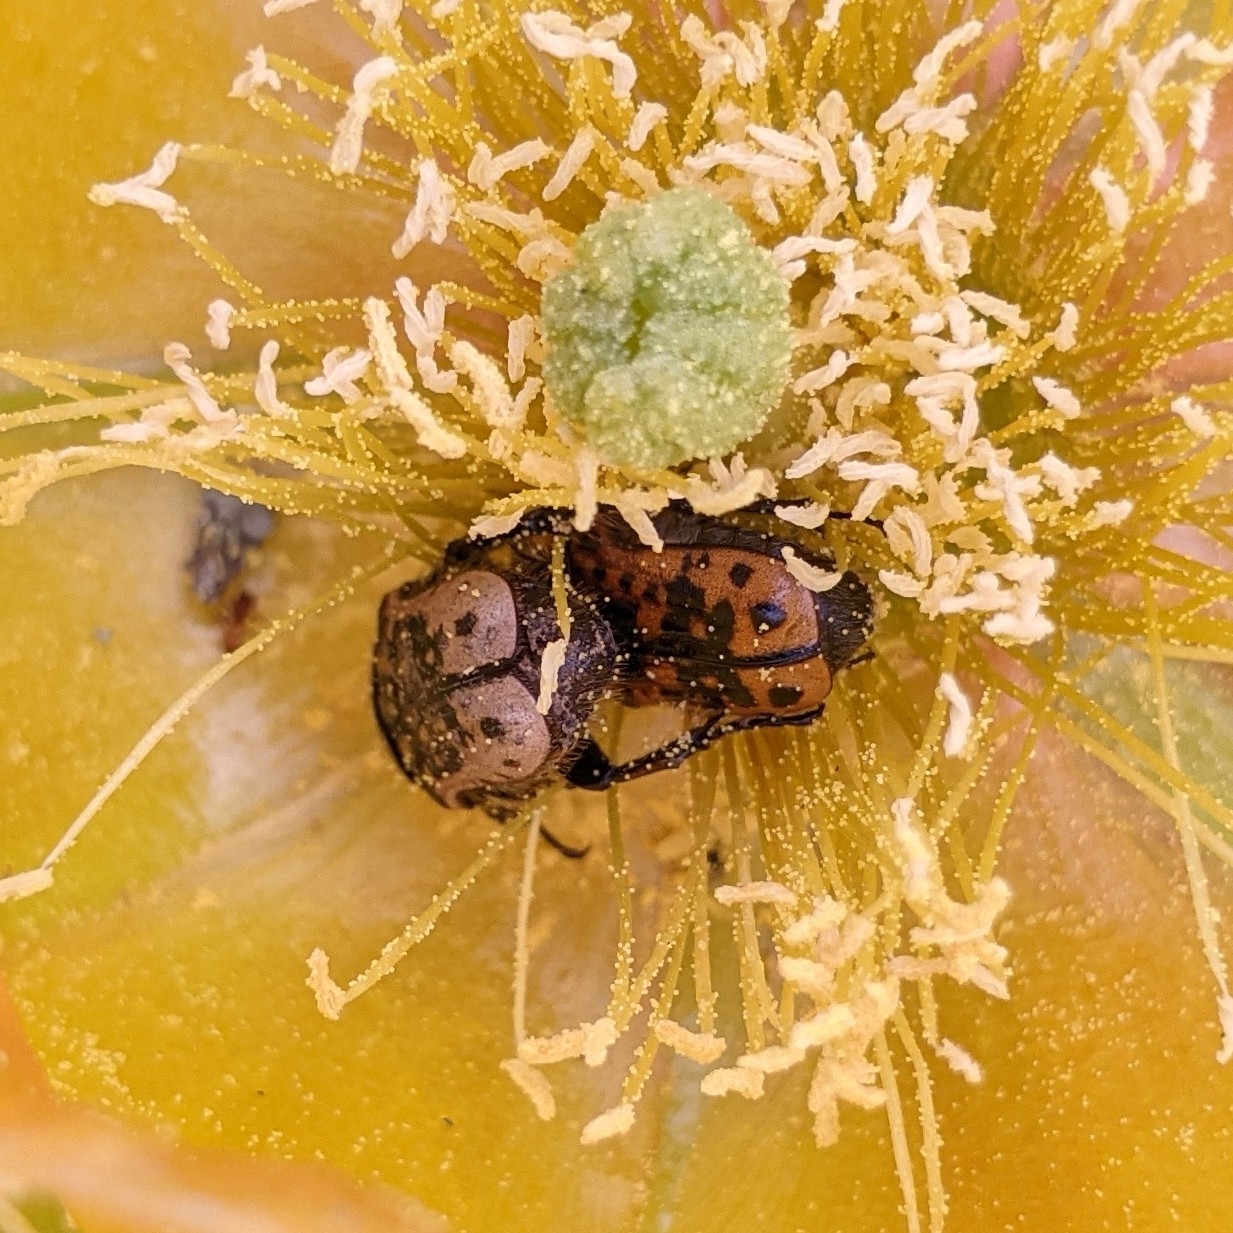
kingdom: Animalia
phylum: Arthropoda
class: Insecta
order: Coleoptera
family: Scarabaeidae
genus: Euphoria
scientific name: Euphoria kernii
